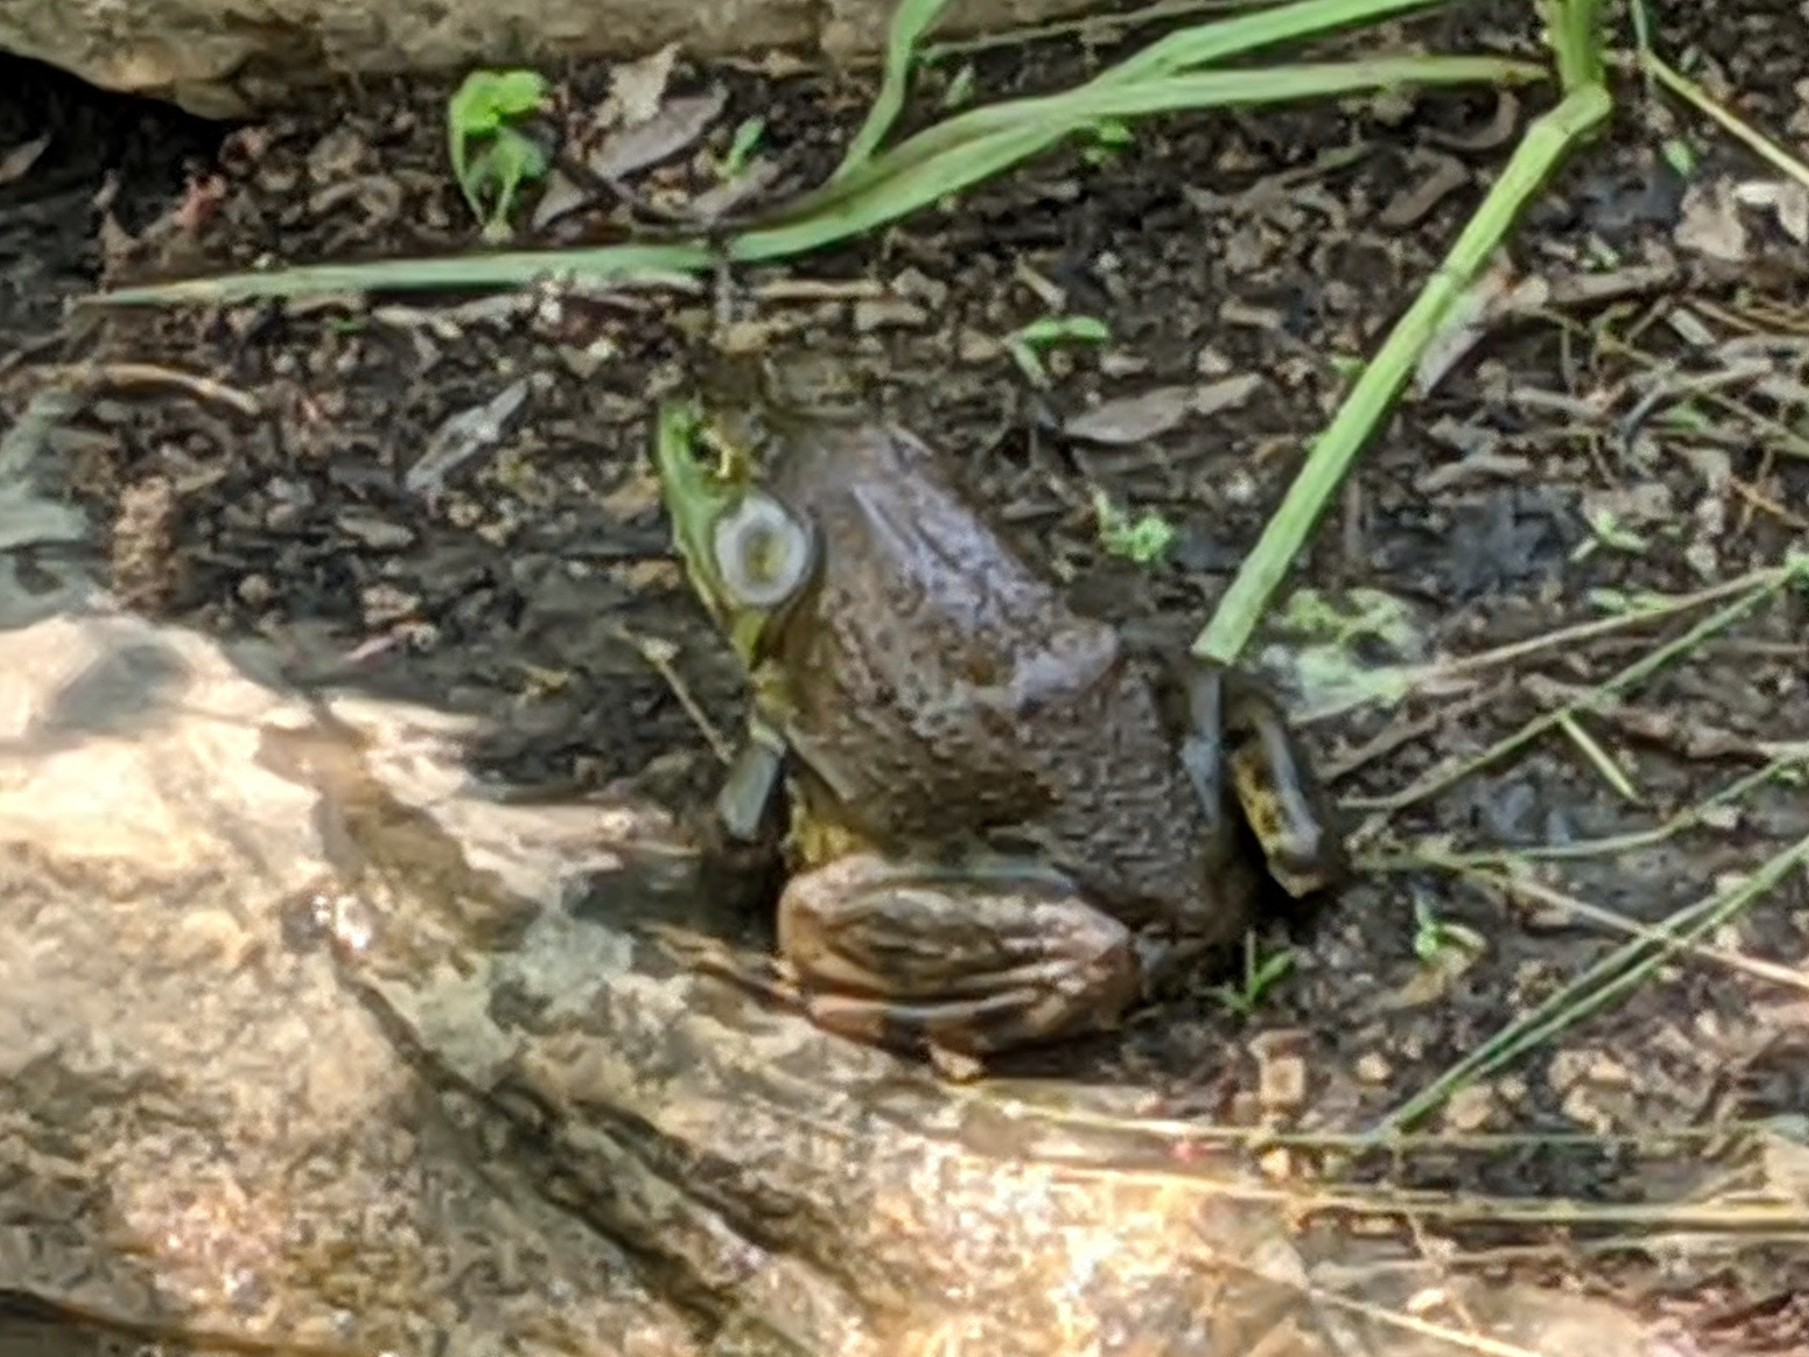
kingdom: Animalia
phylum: Chordata
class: Amphibia
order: Anura
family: Ranidae
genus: Lithobates
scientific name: Lithobates catesbeianus
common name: American bullfrog
